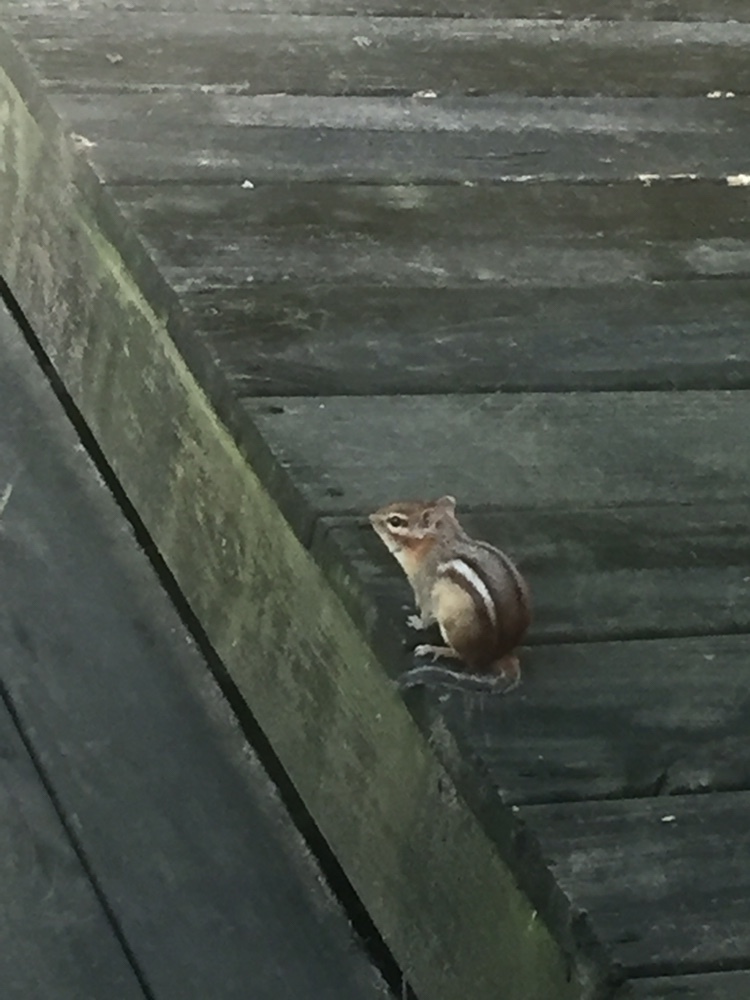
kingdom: Animalia
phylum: Chordata
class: Mammalia
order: Rodentia
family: Sciuridae
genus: Tamias
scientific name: Tamias striatus
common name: Eastern chipmunk
